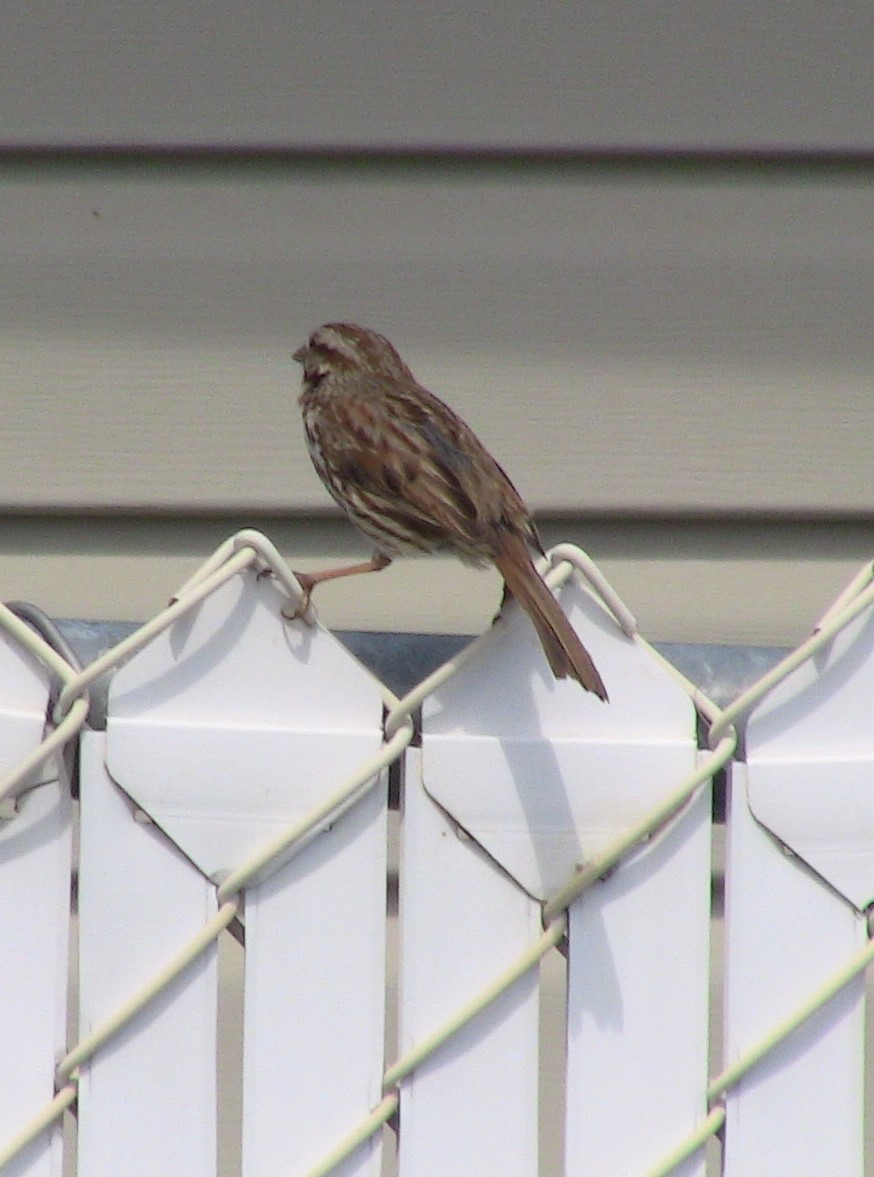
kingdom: Animalia
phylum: Chordata
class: Aves
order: Passeriformes
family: Passerellidae
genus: Melospiza
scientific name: Melospiza melodia
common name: Song sparrow
